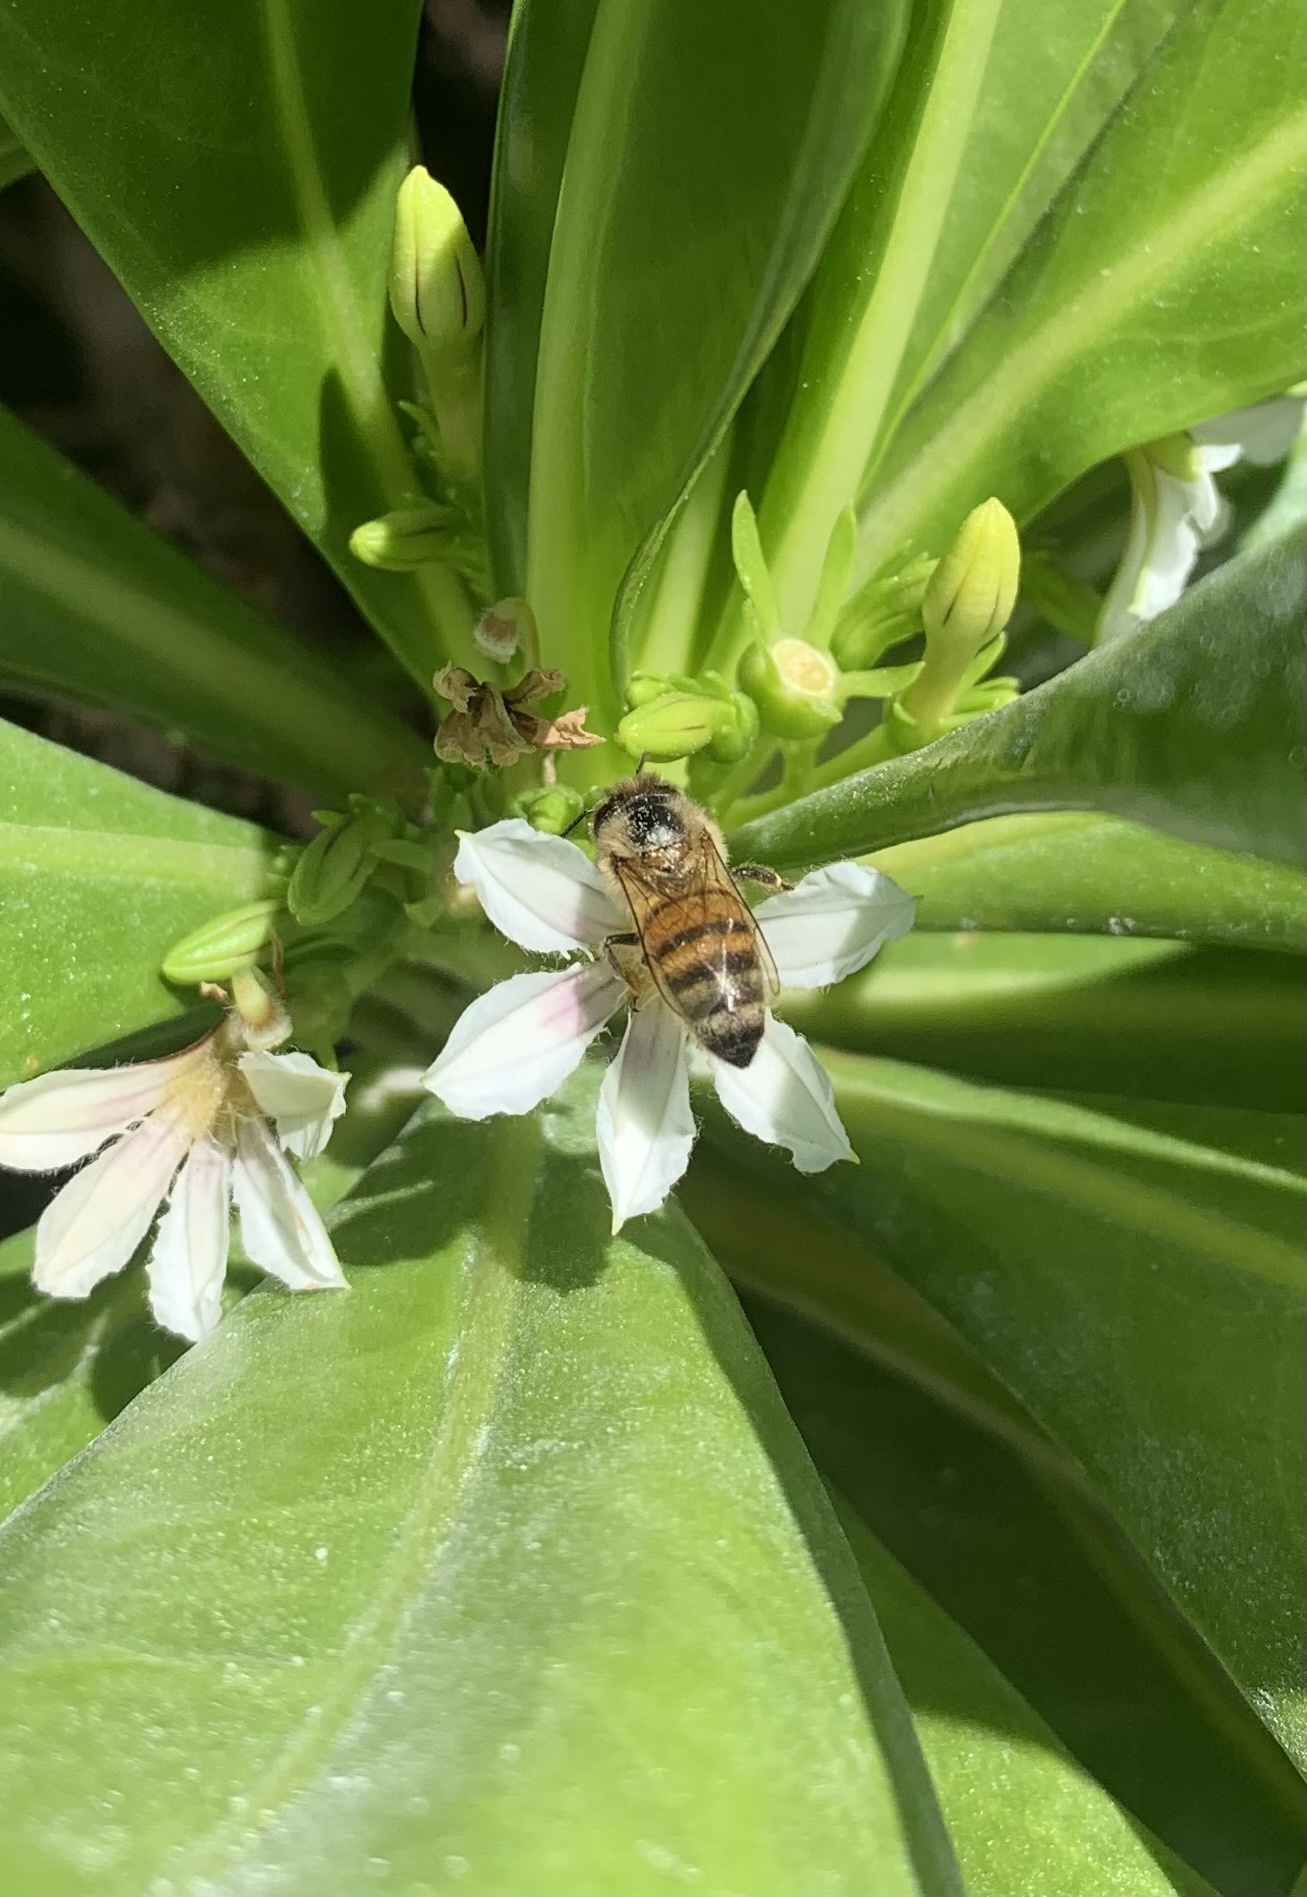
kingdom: Animalia
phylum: Arthropoda
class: Insecta
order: Hymenoptera
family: Apidae
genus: Apis
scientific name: Apis mellifera
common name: Honey bee
